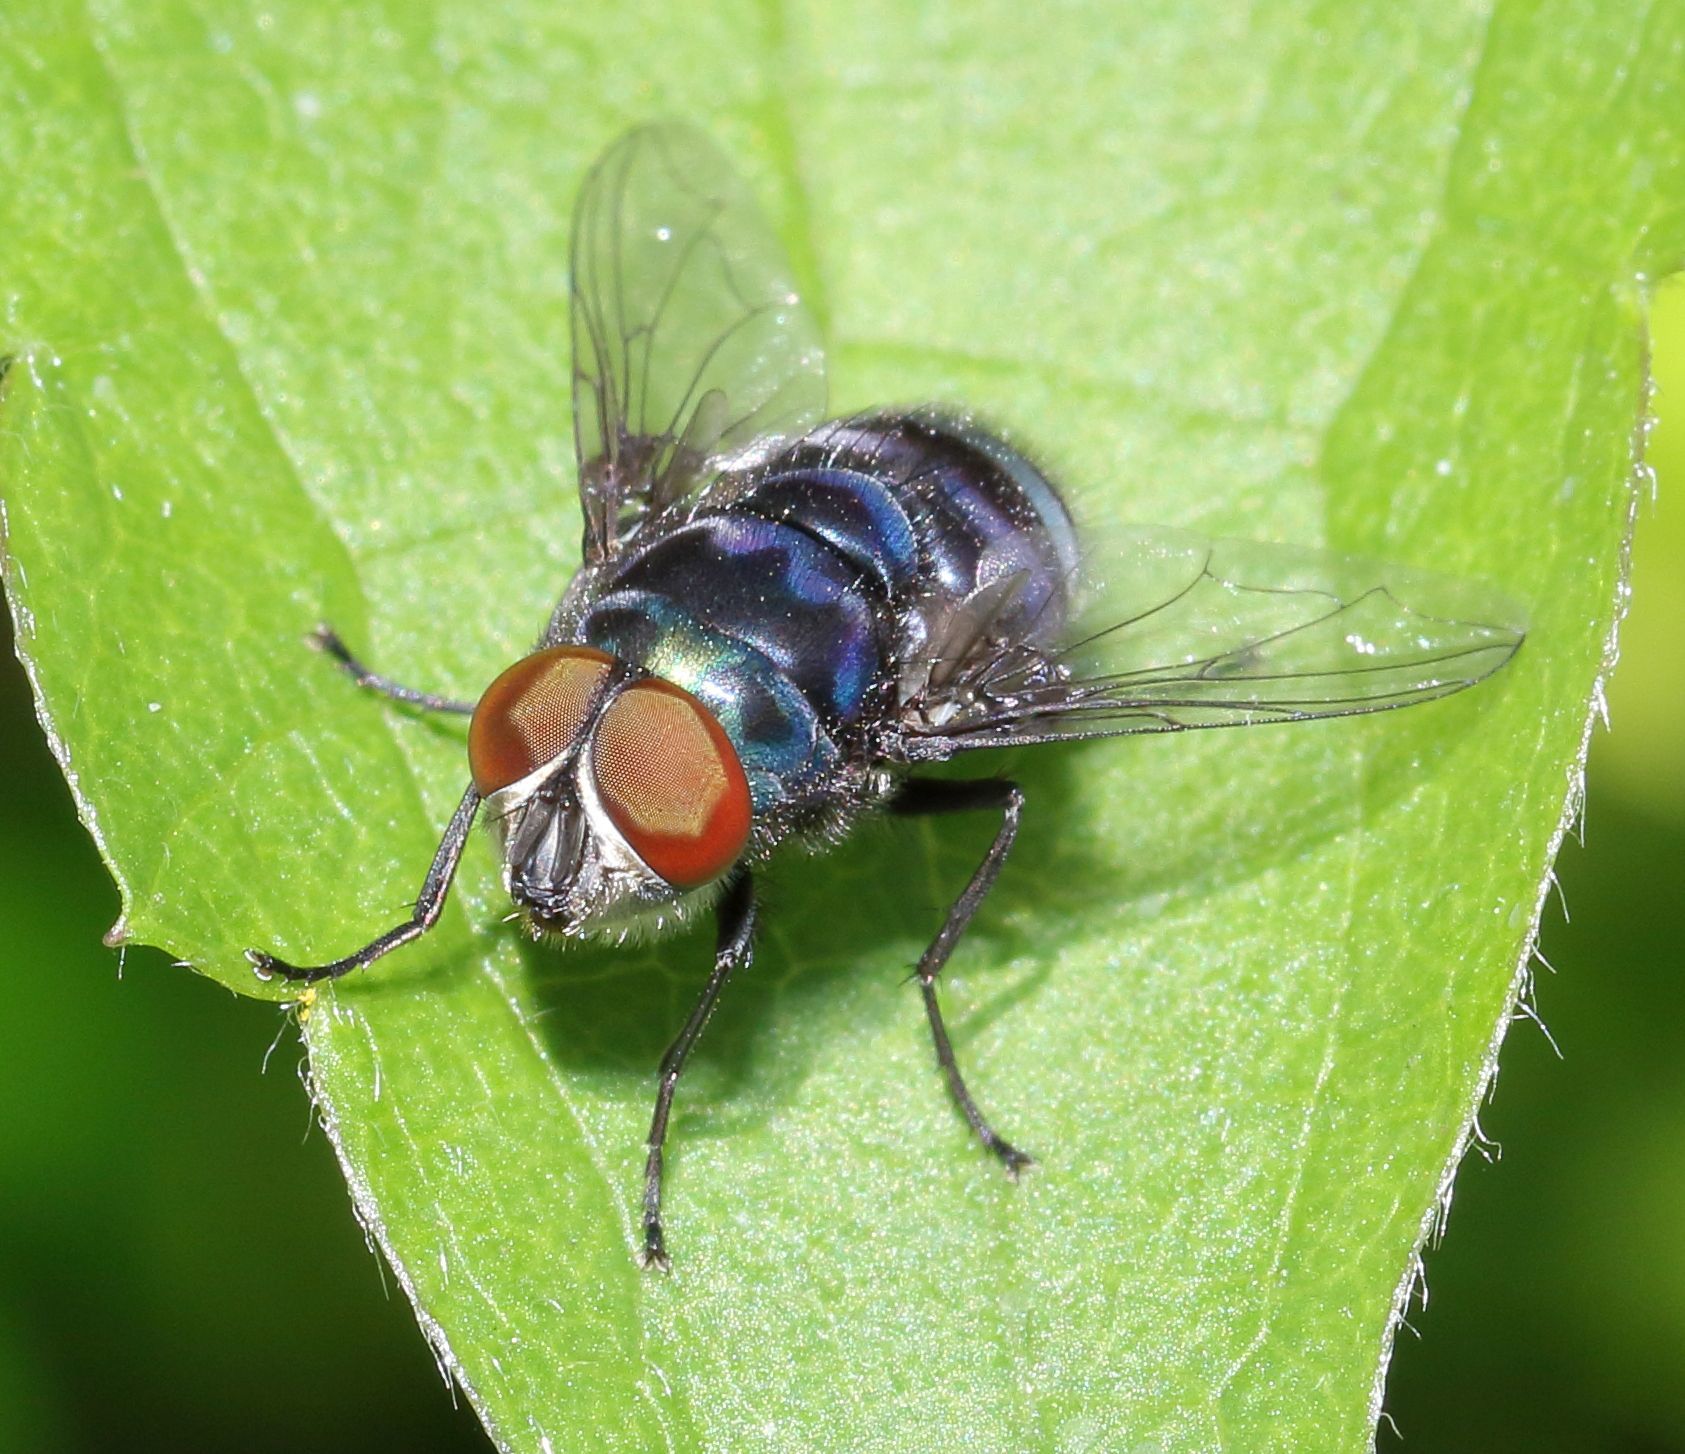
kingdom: Animalia
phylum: Arthropoda
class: Insecta
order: Diptera
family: Calliphoridae
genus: Chrysomya
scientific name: Chrysomya chloropyga
